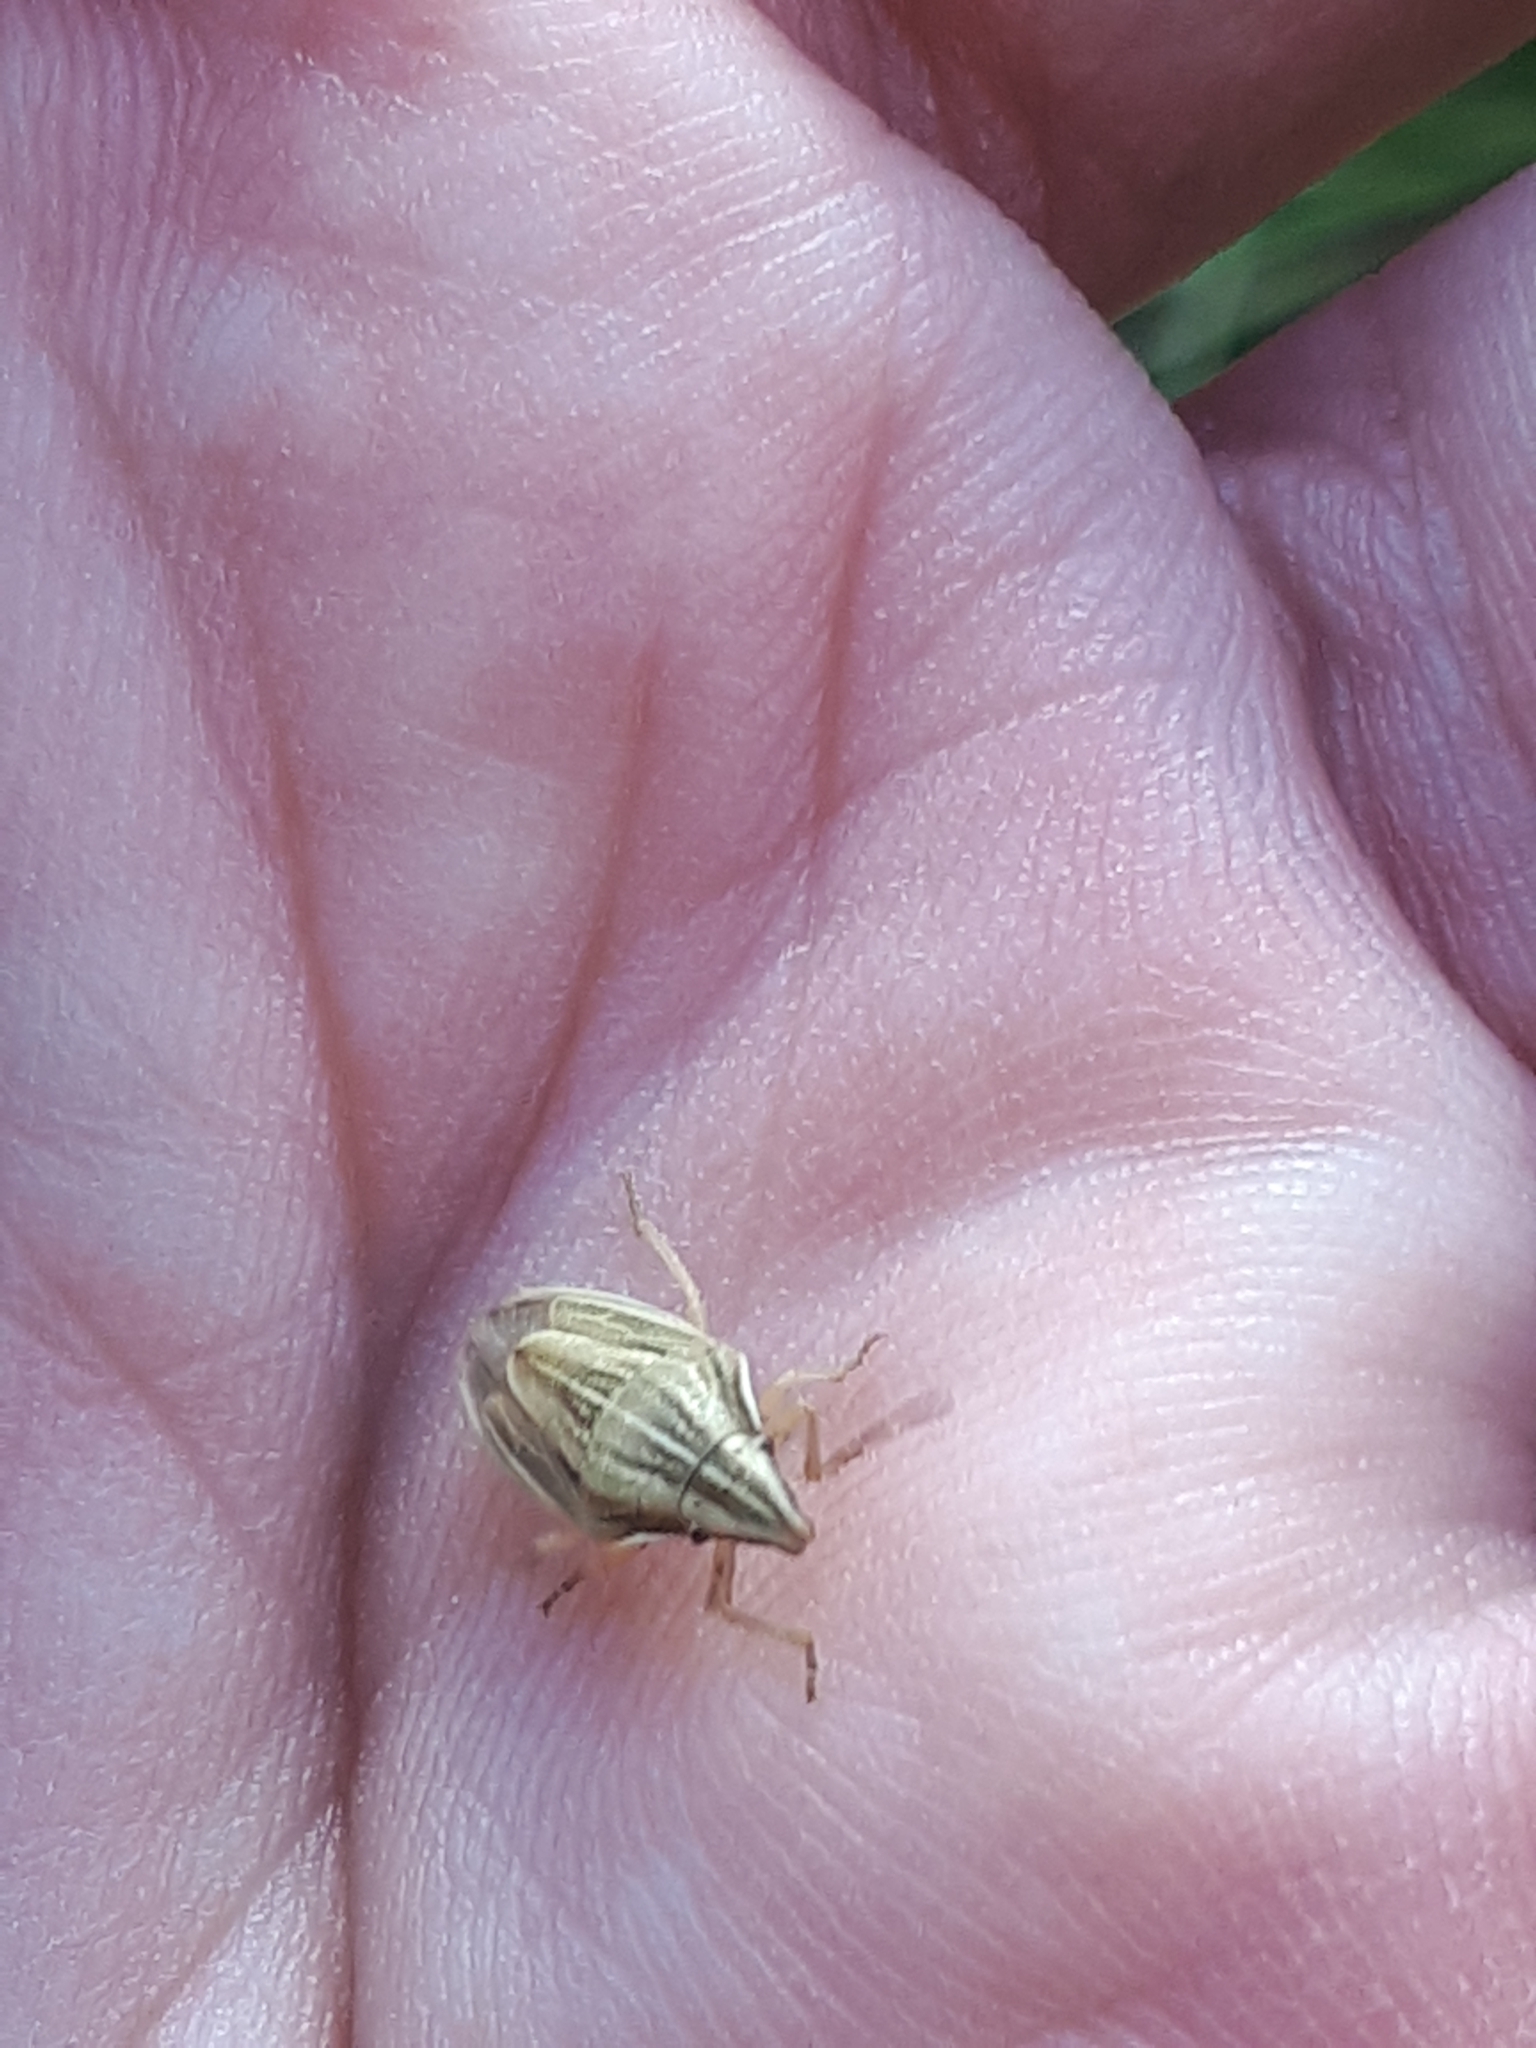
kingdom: Animalia
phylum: Arthropoda
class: Insecta
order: Hemiptera
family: Pentatomidae
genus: Aelia
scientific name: Aelia acuminata
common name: Bishop's mitre
